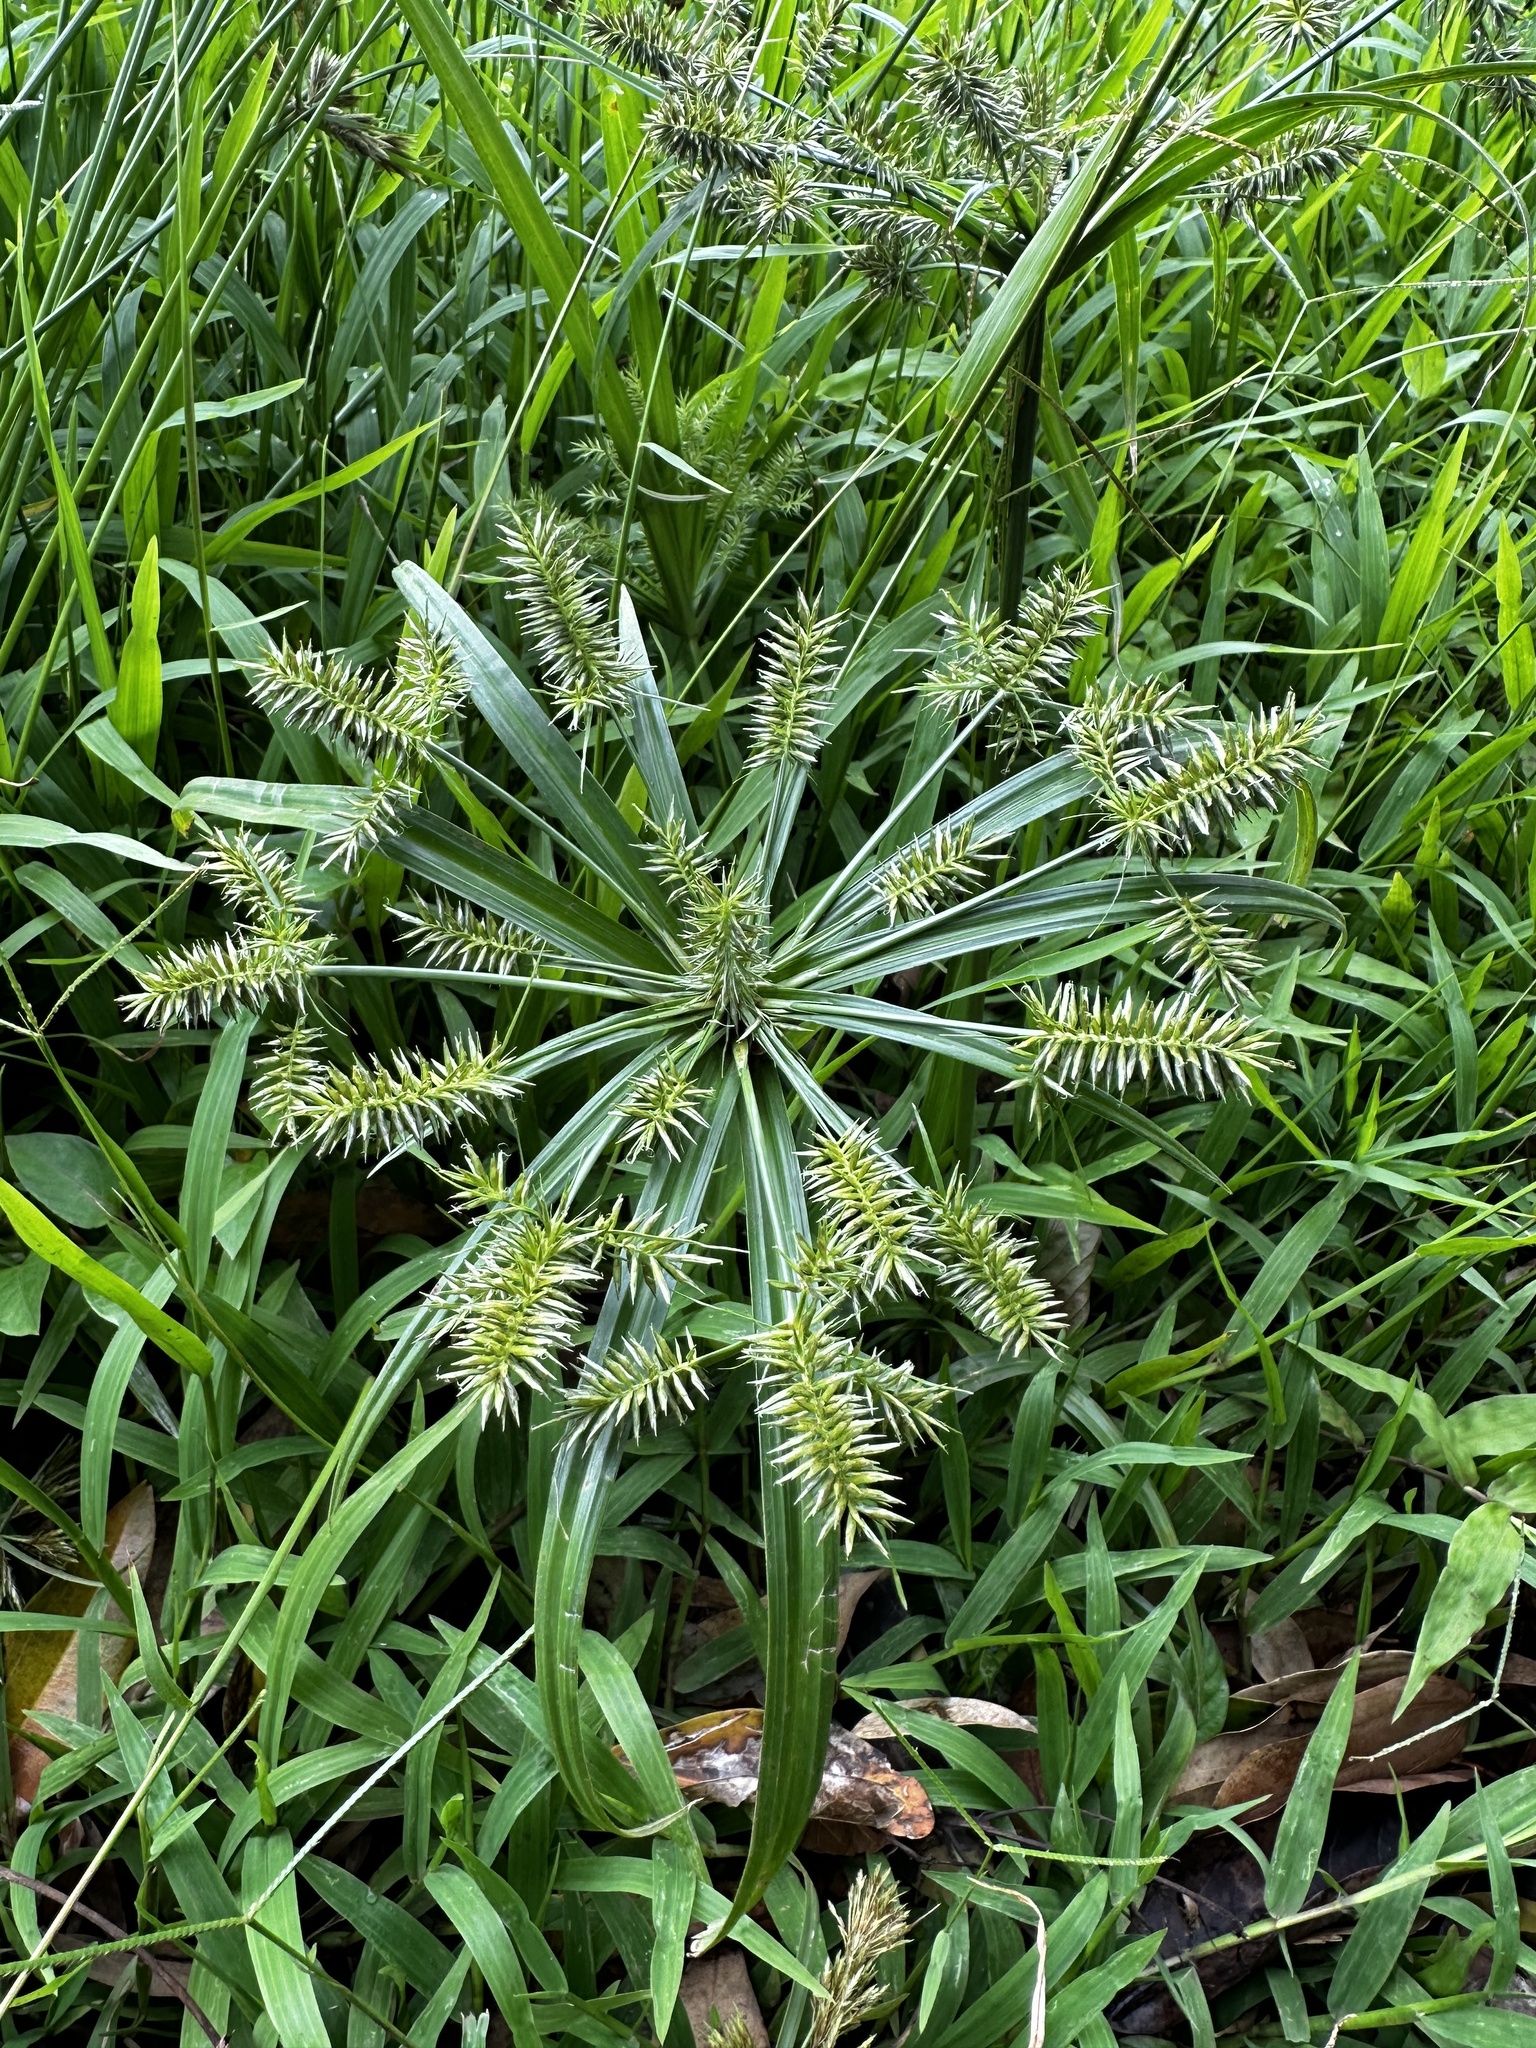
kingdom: Plantae
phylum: Tracheophyta
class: Liliopsida
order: Poales
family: Cyperaceae
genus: Cyperus
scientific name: Cyperus meyenianus
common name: Meyen's flatsedge
